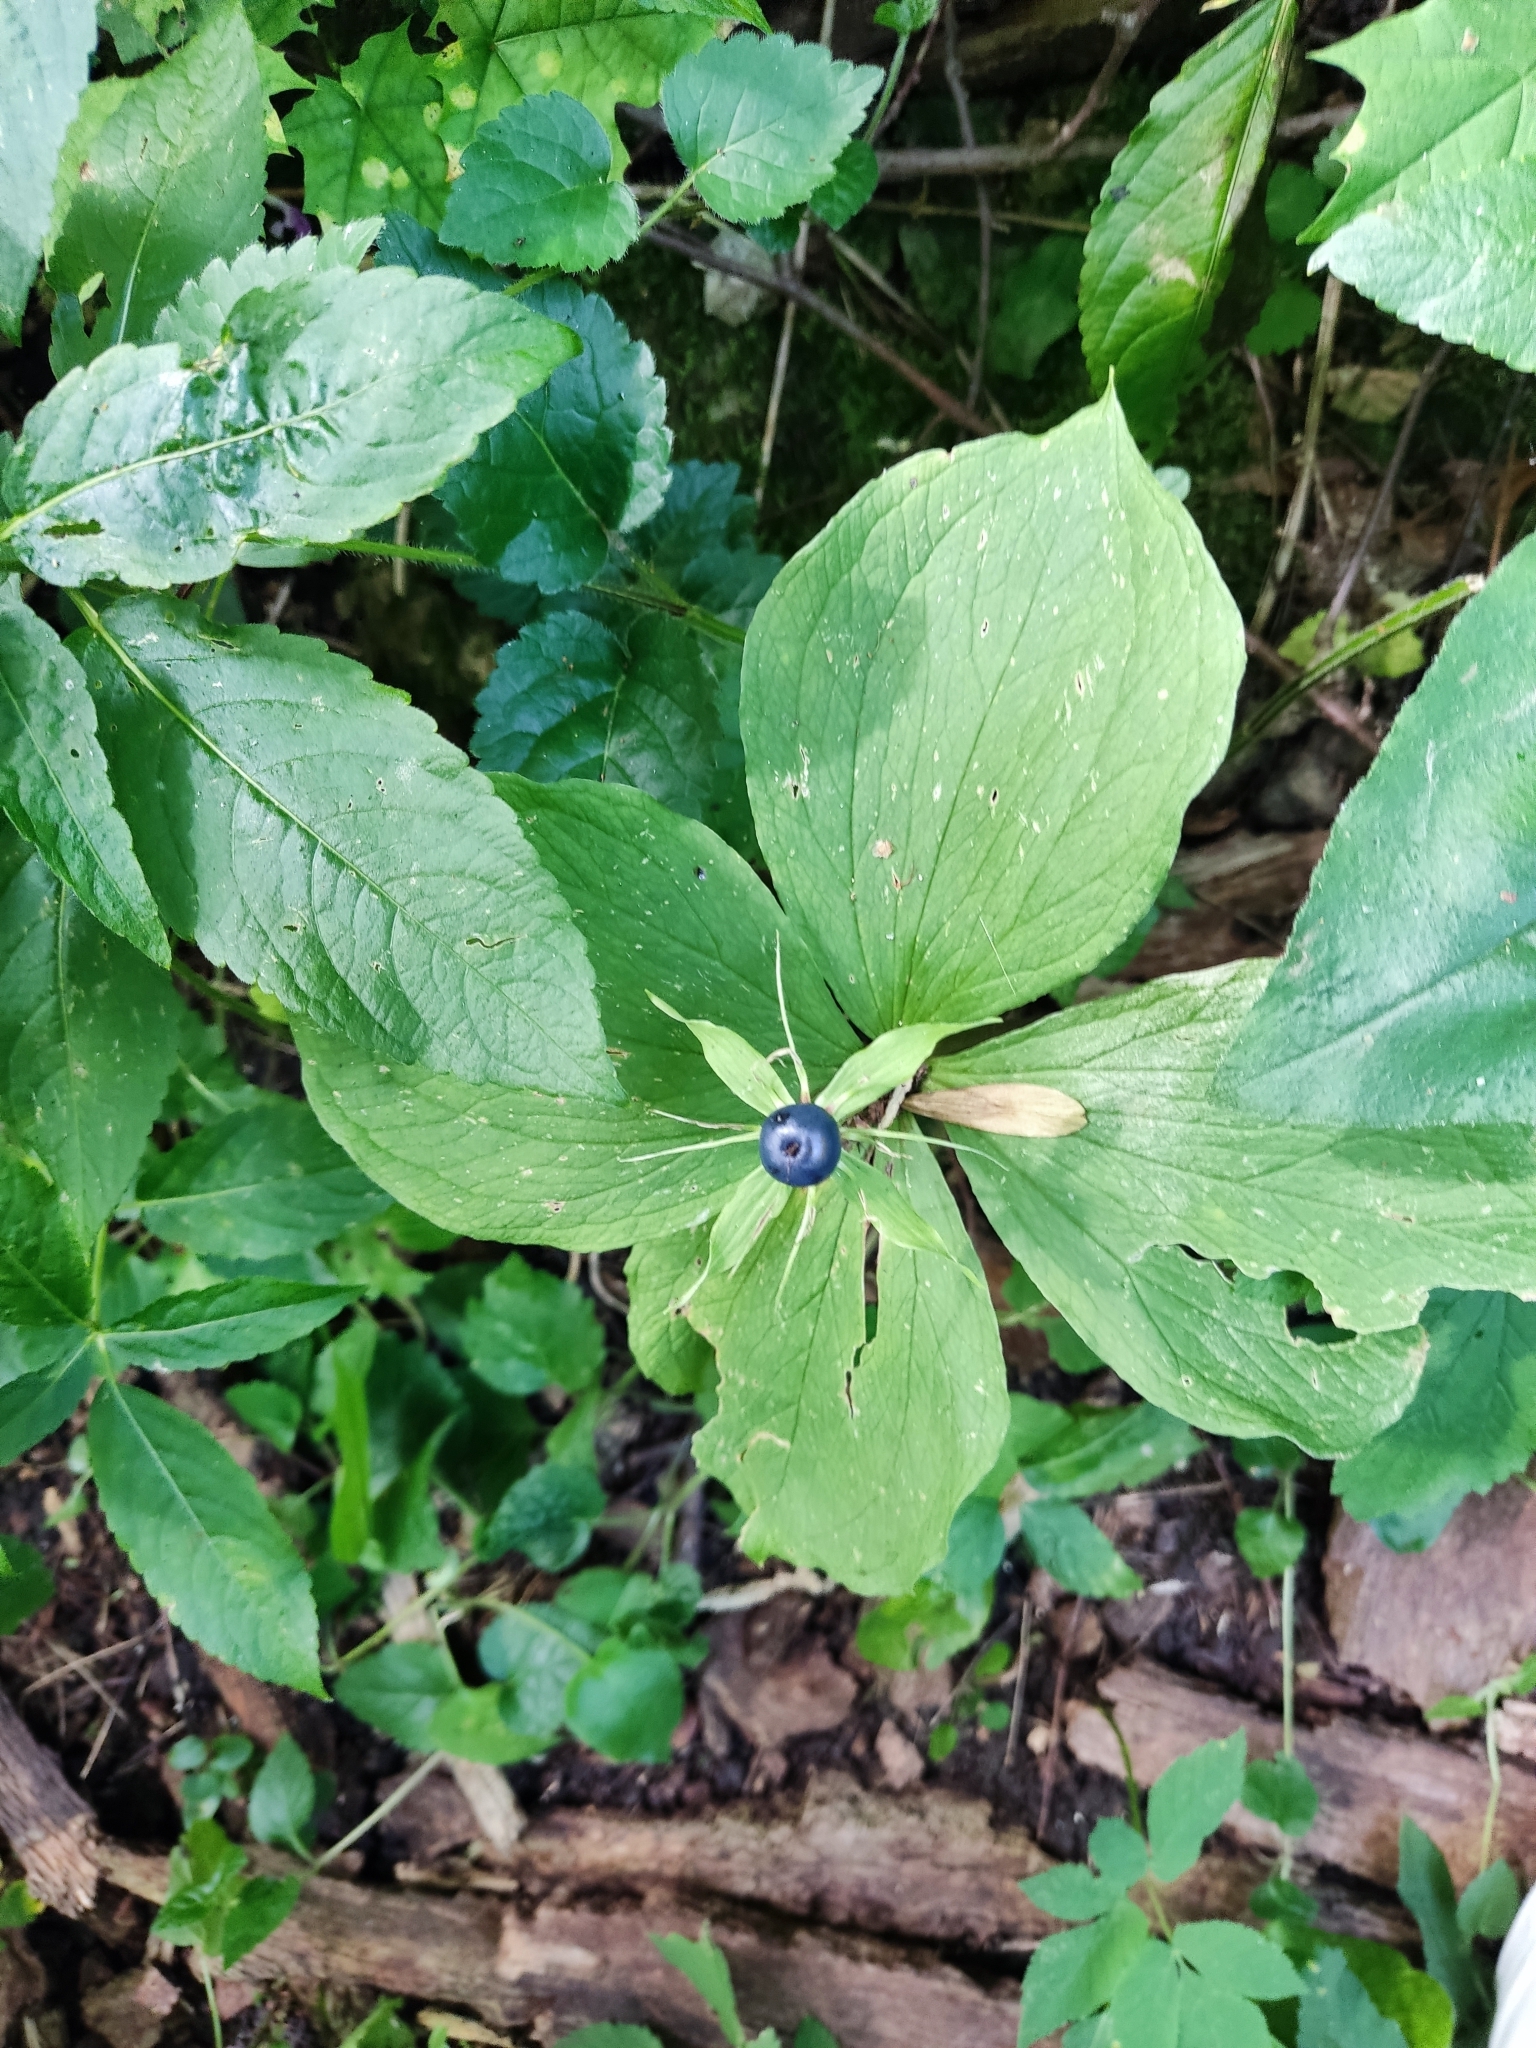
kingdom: Plantae
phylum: Tracheophyta
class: Liliopsida
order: Liliales
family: Melanthiaceae
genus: Paris
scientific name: Paris quadrifolia
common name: Herb-paris
